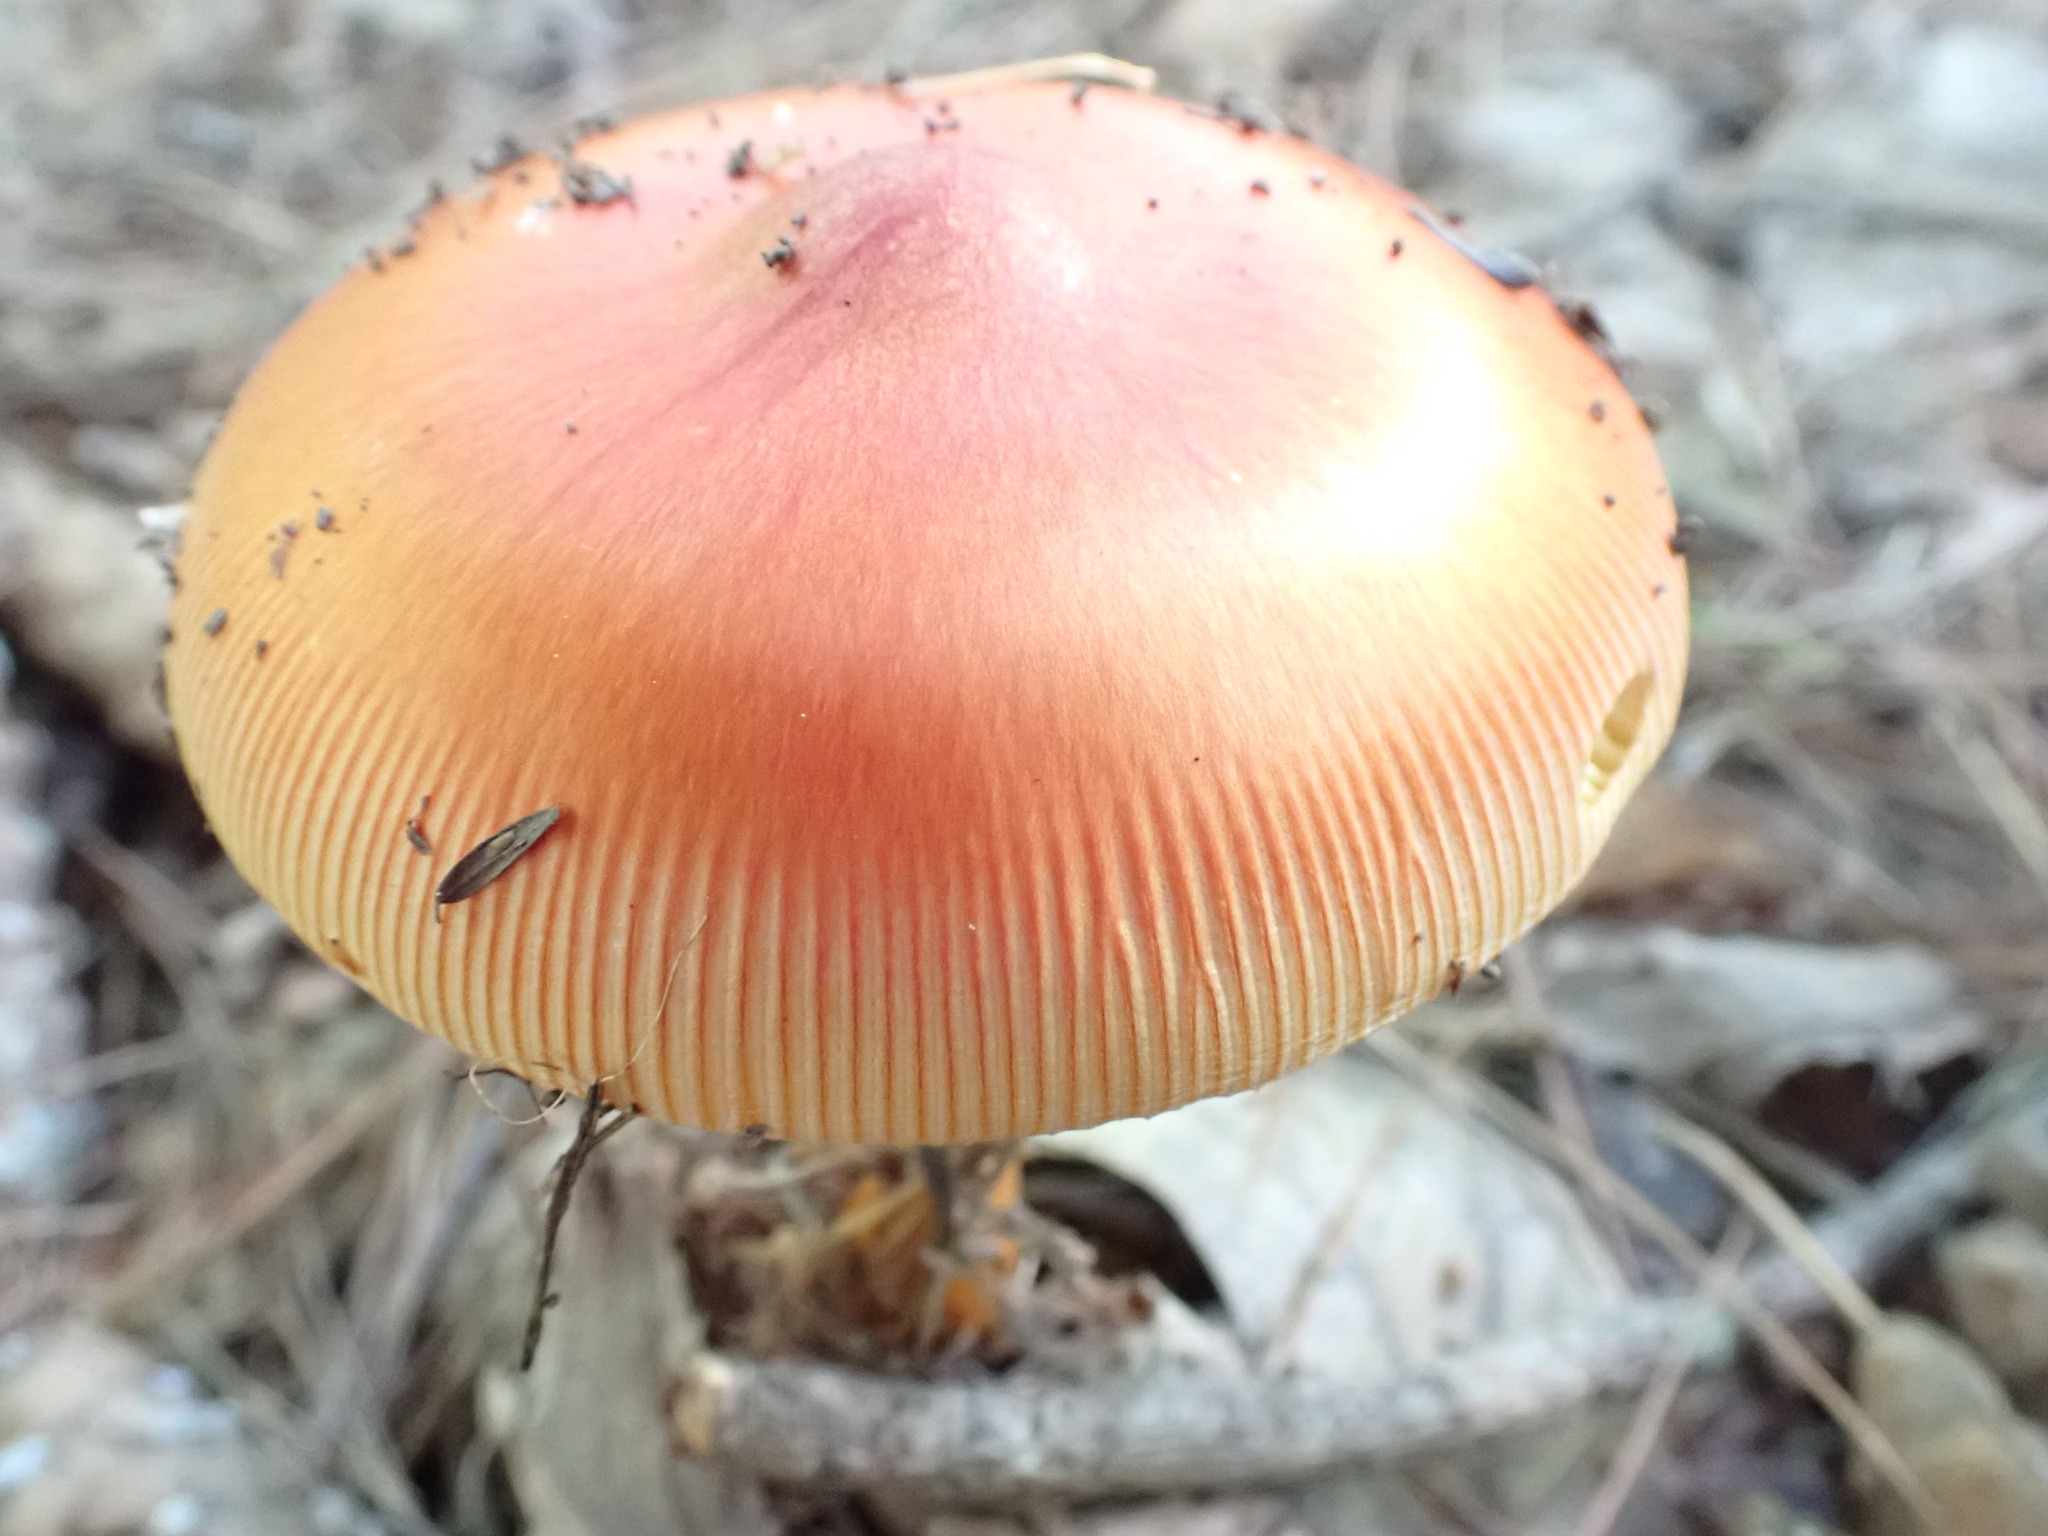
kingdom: Fungi
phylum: Basidiomycota
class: Agaricomycetes
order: Agaricales
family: Amanitaceae
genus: Amanita
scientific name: Amanita jacksonii
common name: Jackson's slender caesar
